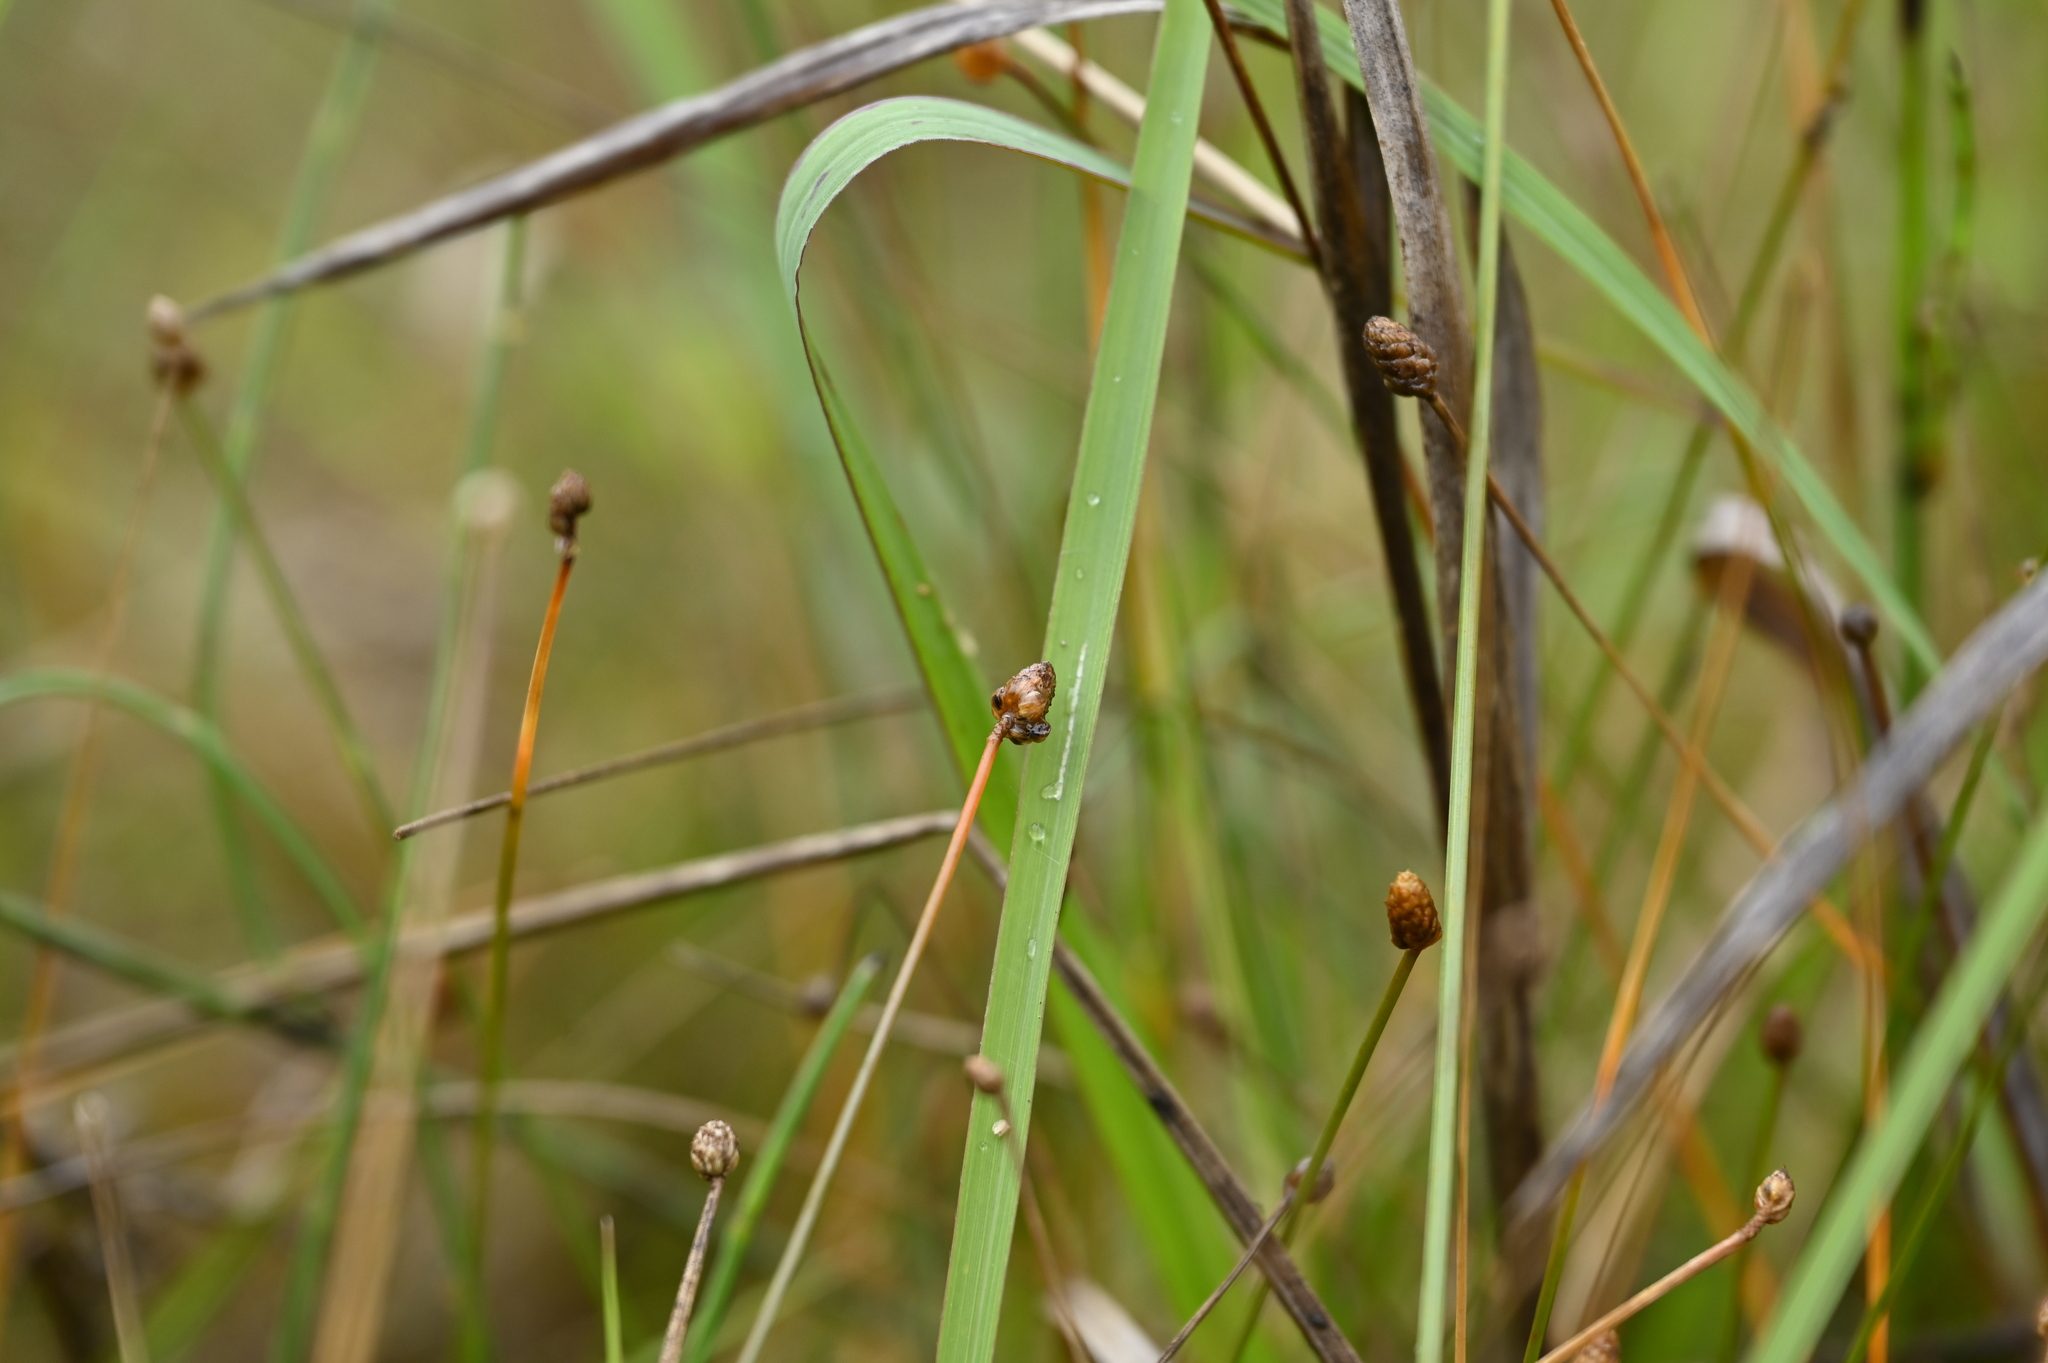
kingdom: Plantae
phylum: Tracheophyta
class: Liliopsida
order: Poales
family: Cyperaceae
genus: Eleocharis
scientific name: Eleocharis geniculata
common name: Canada spikesedge
